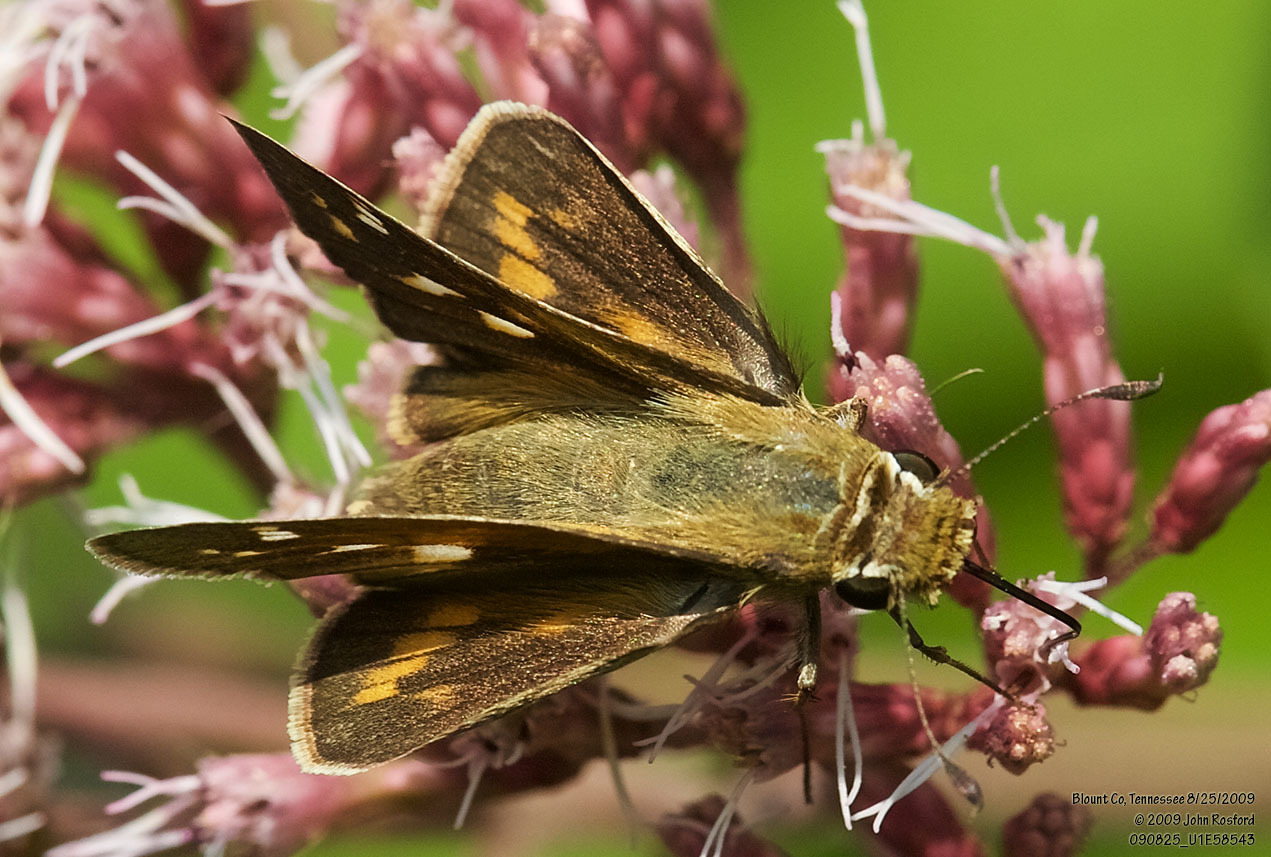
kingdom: Animalia
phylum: Arthropoda
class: Insecta
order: Lepidoptera
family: Hesperiidae
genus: Atalopedes
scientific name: Atalopedes
